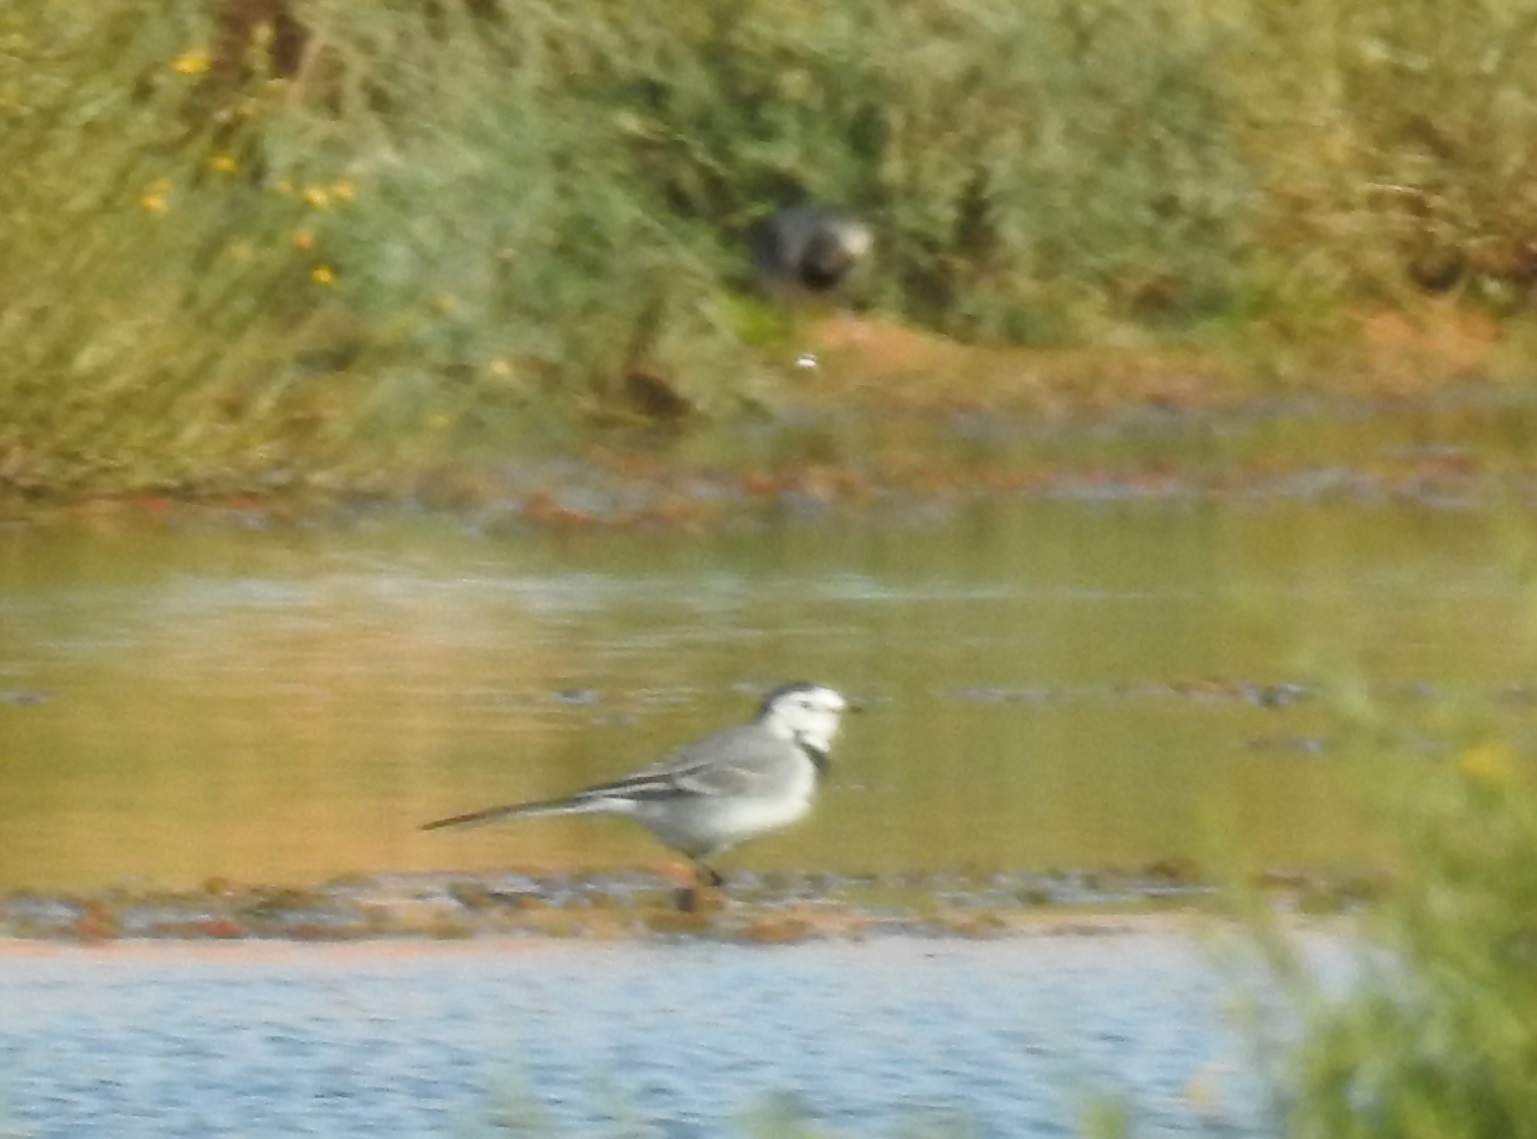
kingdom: Animalia
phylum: Chordata
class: Aves
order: Passeriformes
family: Motacillidae
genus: Motacilla
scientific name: Motacilla alba
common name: White wagtail
